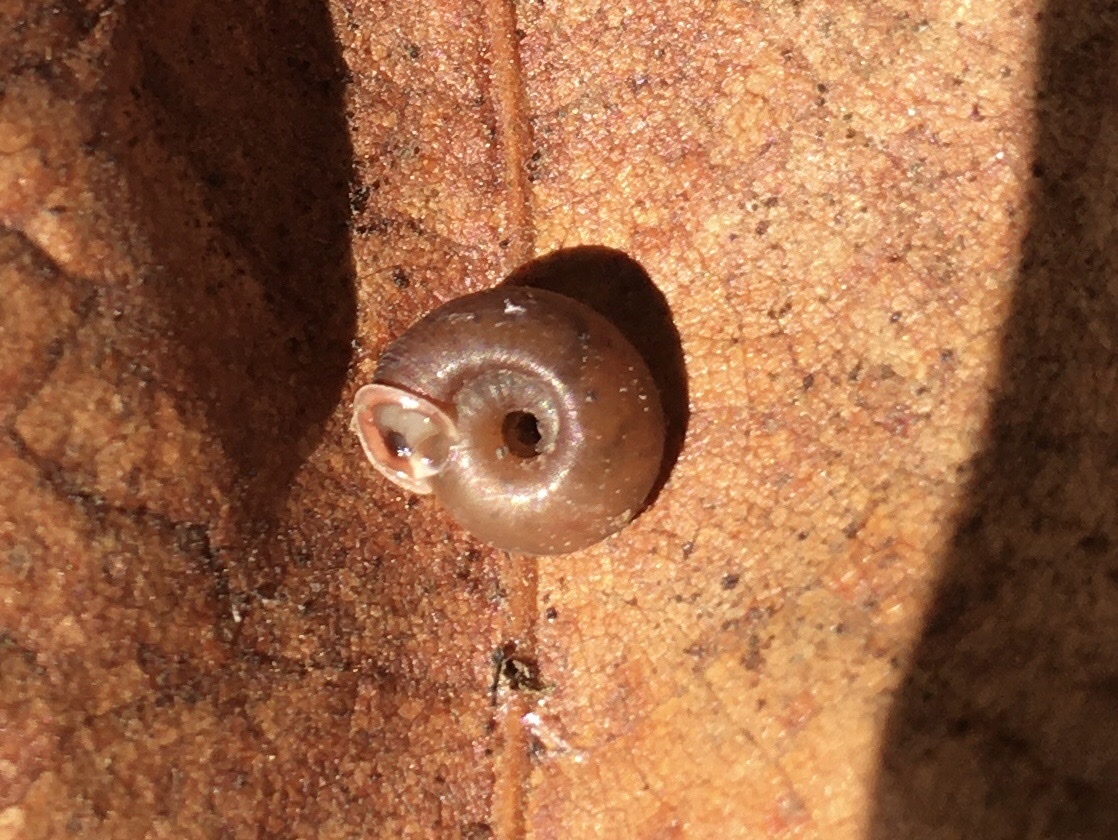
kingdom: Animalia
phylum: Mollusca
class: Gastropoda
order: Stylommatophora
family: Polygyridae
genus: Polygyra
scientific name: Polygyra cereolus
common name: Southern flatcone snail
